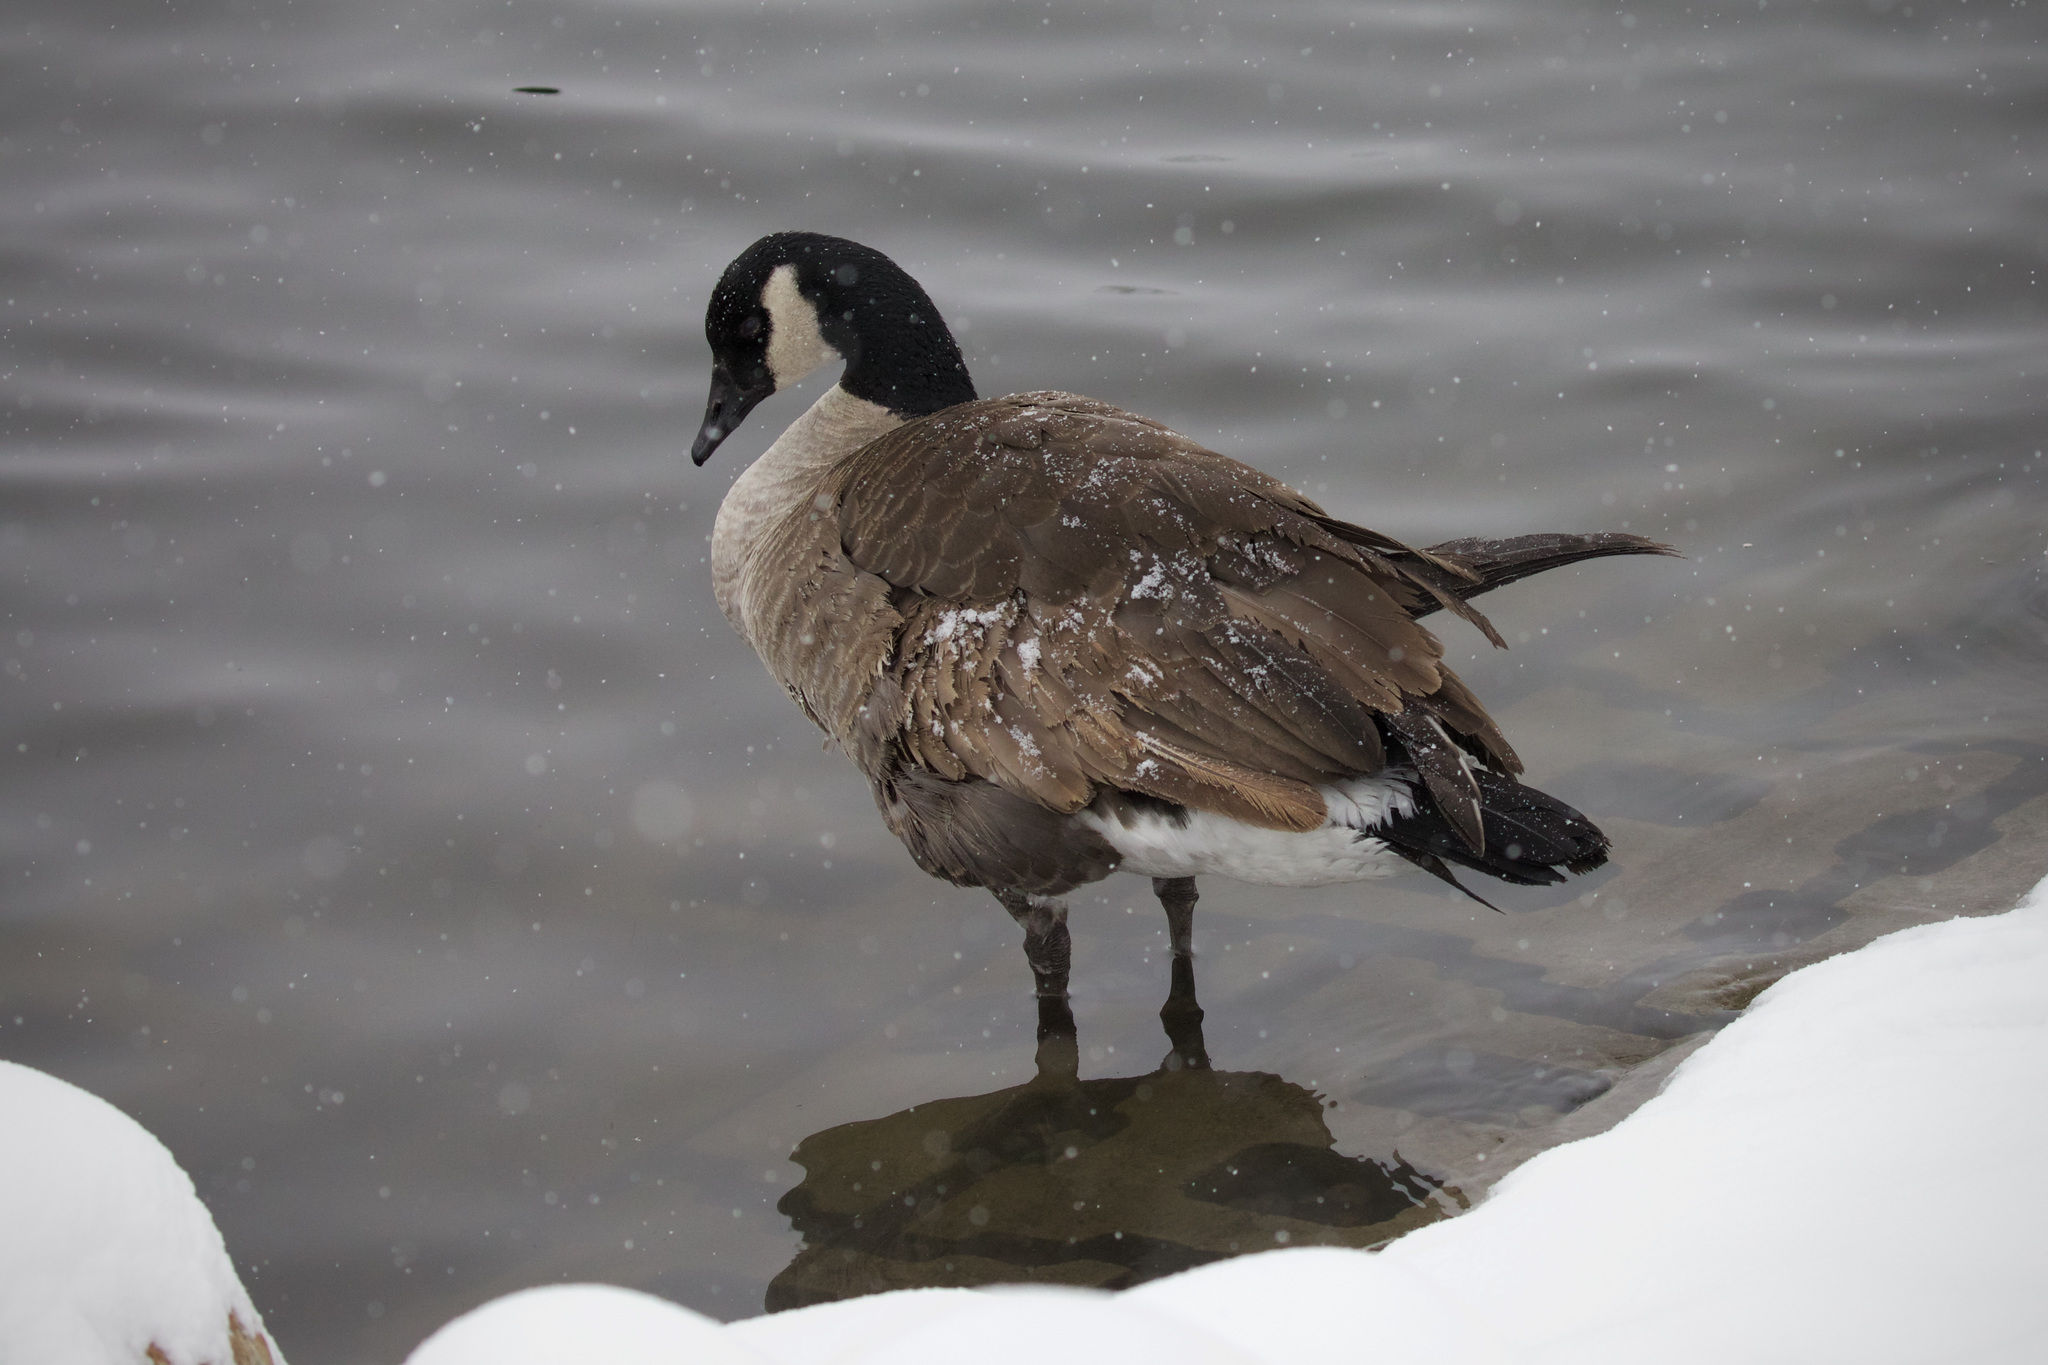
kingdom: Animalia
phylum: Chordata
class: Aves
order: Anseriformes
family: Anatidae
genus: Branta
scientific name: Branta canadensis
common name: Canada goose
